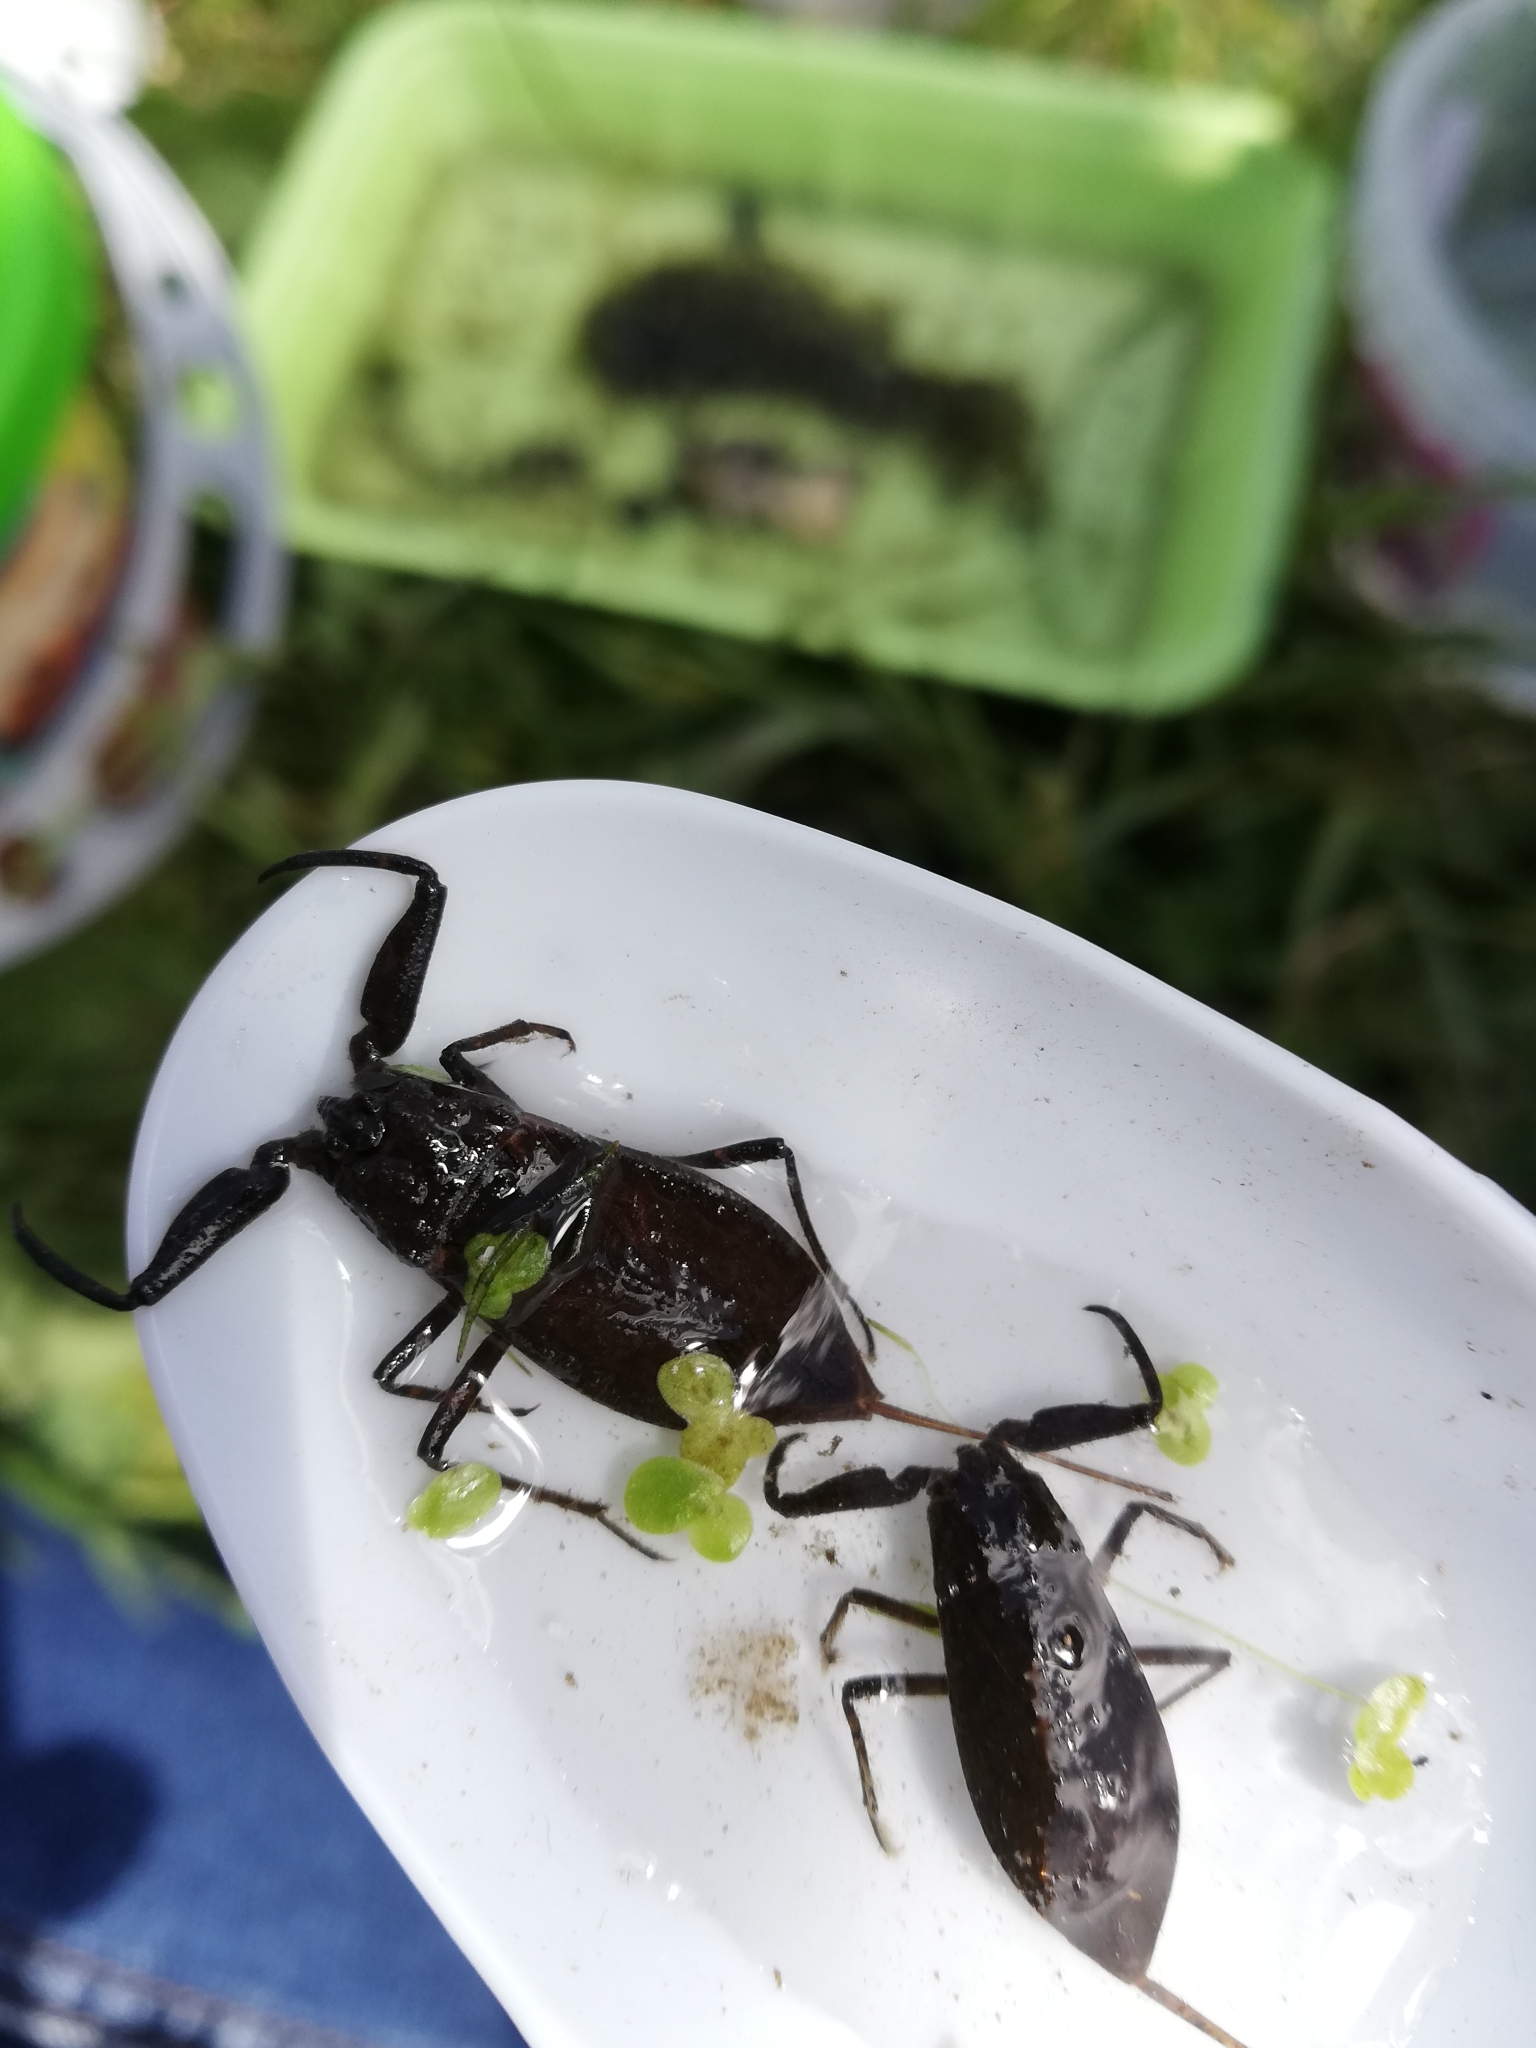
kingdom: Animalia
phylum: Arthropoda
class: Insecta
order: Hemiptera
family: Nepidae
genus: Nepa
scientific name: Nepa cinerea
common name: Water scorpion
